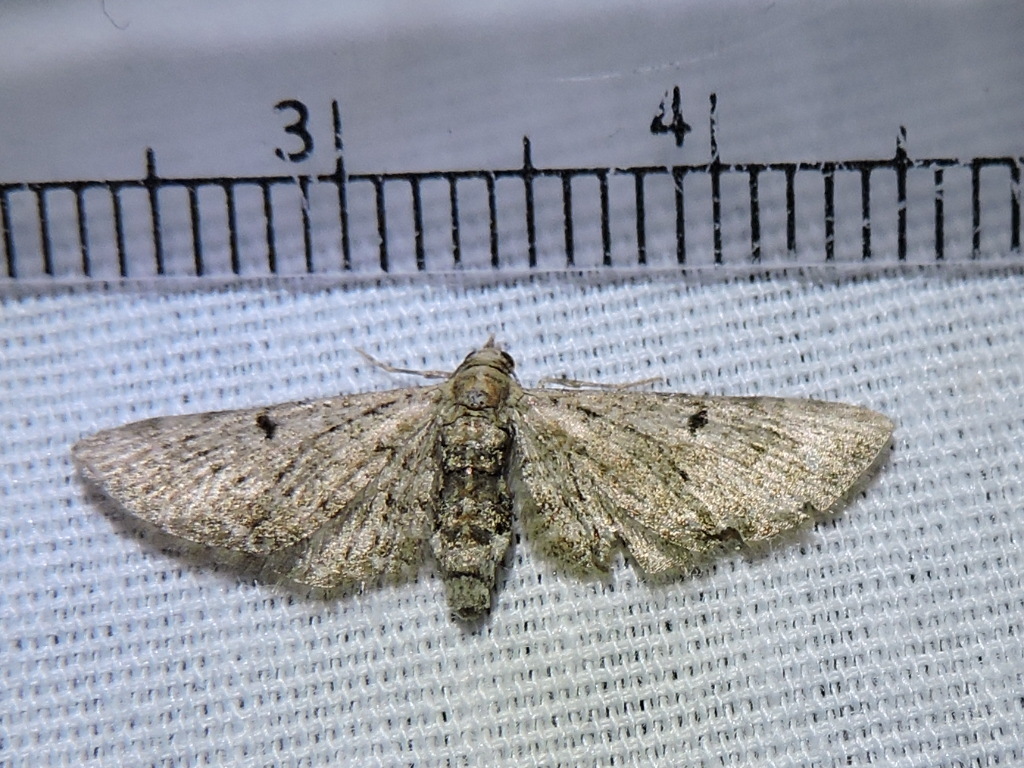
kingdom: Animalia
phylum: Arthropoda
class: Insecta
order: Lepidoptera
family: Geometridae
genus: Eupithecia
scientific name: Eupithecia miserulata
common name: Common eupithecia
